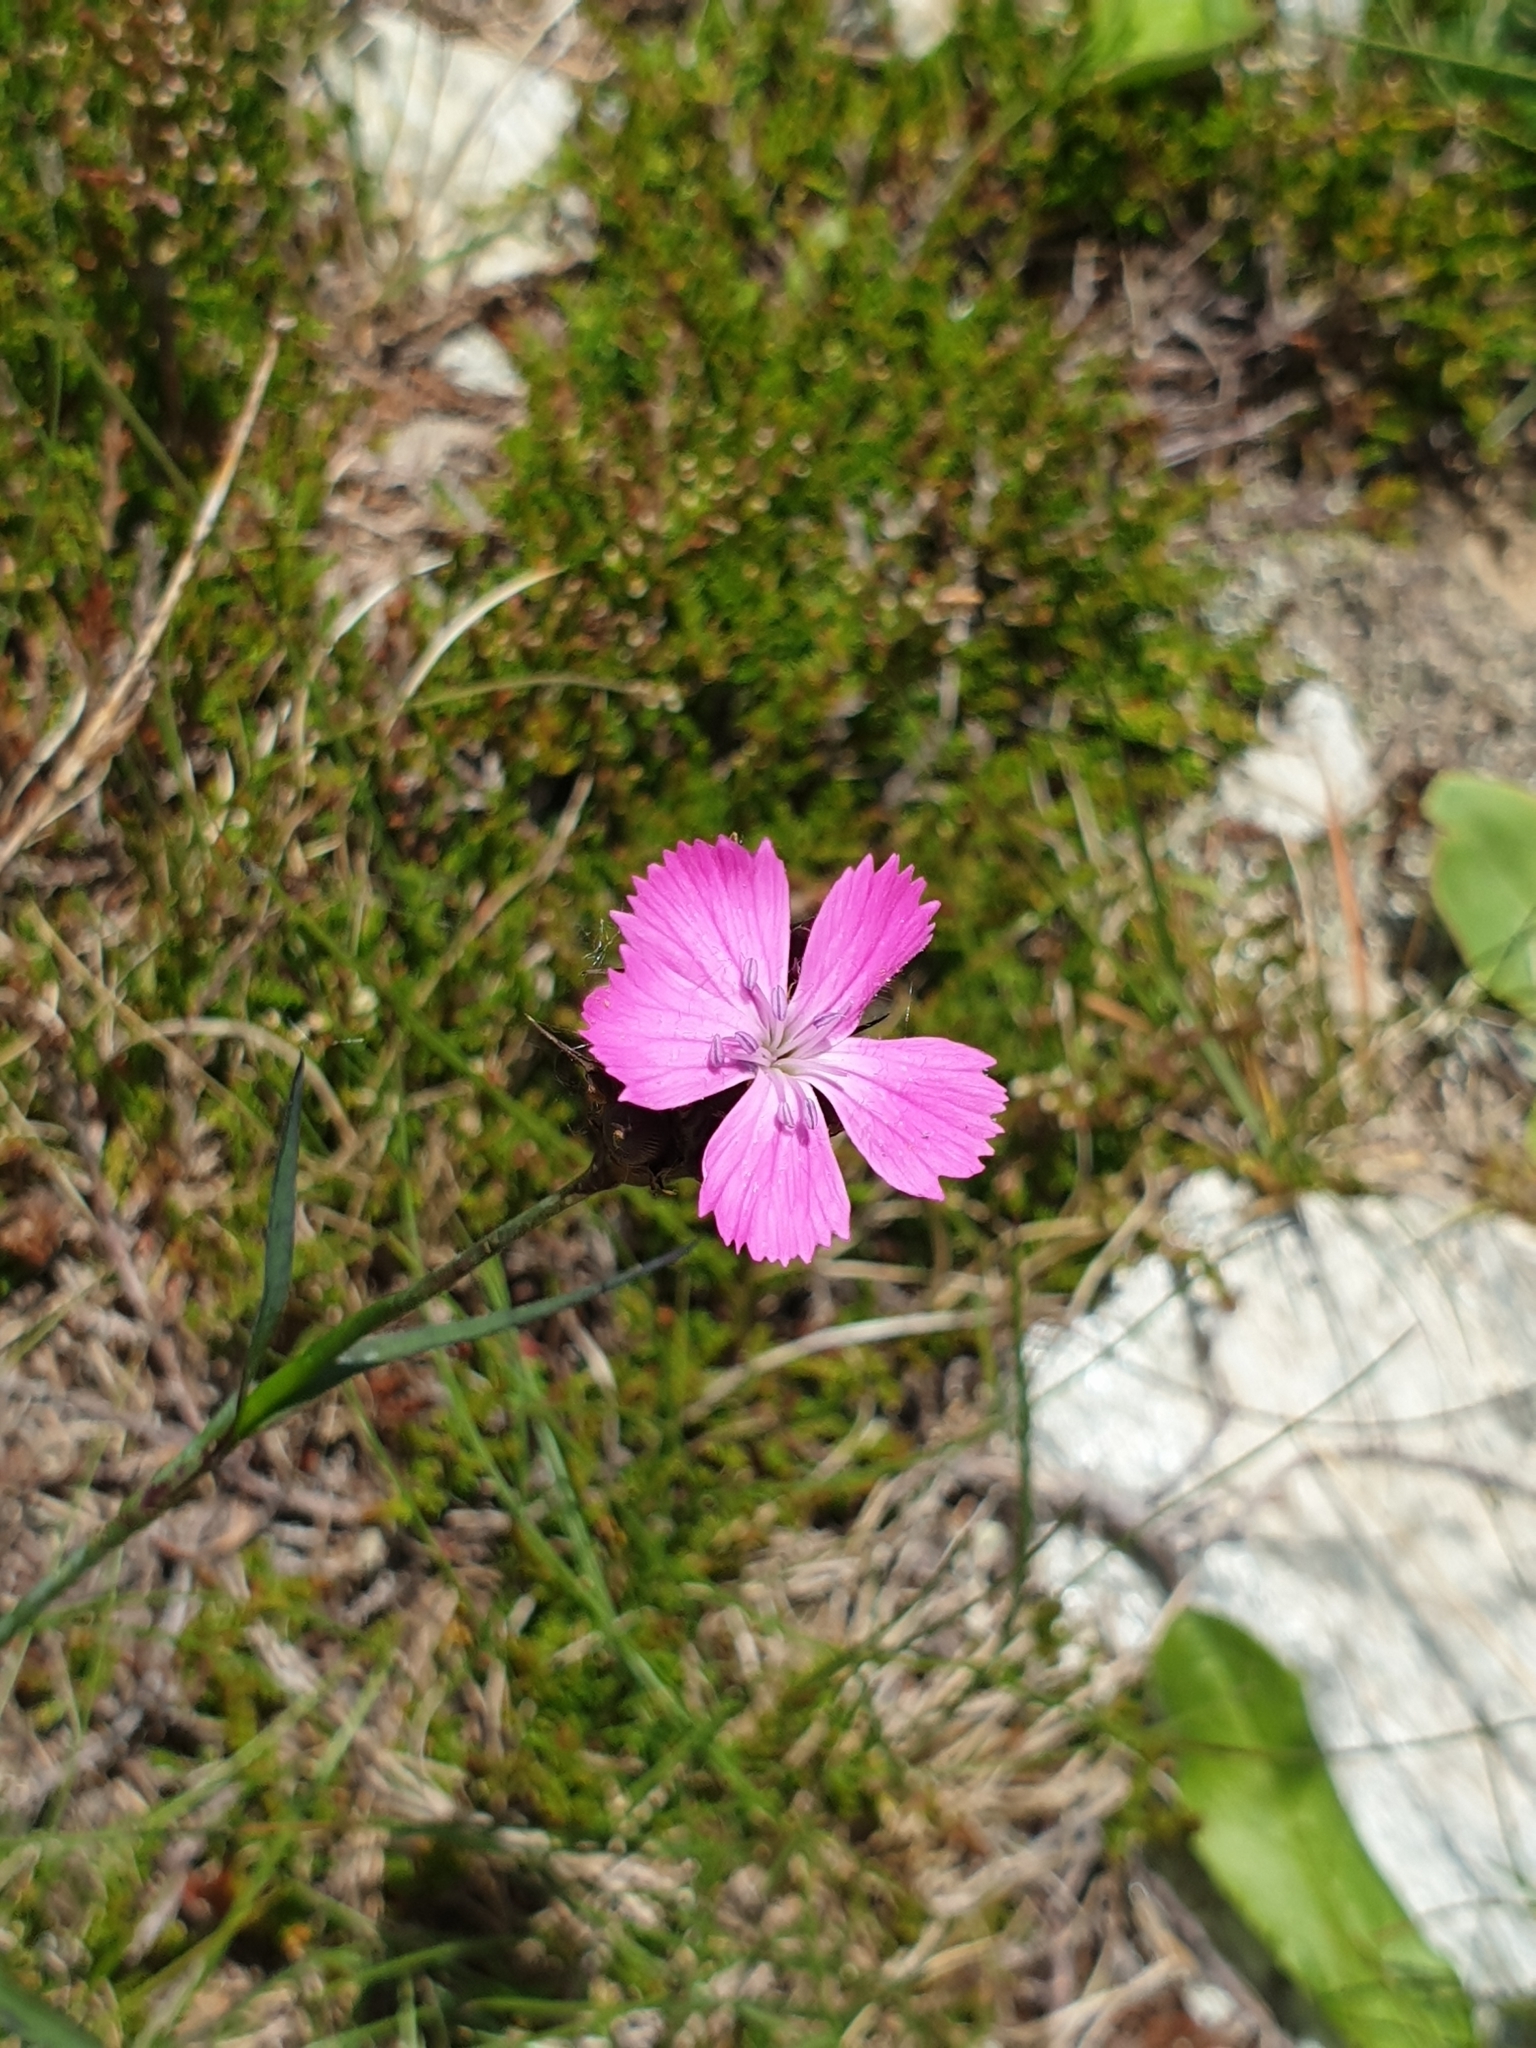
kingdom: Plantae
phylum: Tracheophyta
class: Magnoliopsida
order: Caryophyllales
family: Caryophyllaceae
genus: Dianthus
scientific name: Dianthus carthusianorum
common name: Carthusian pink
